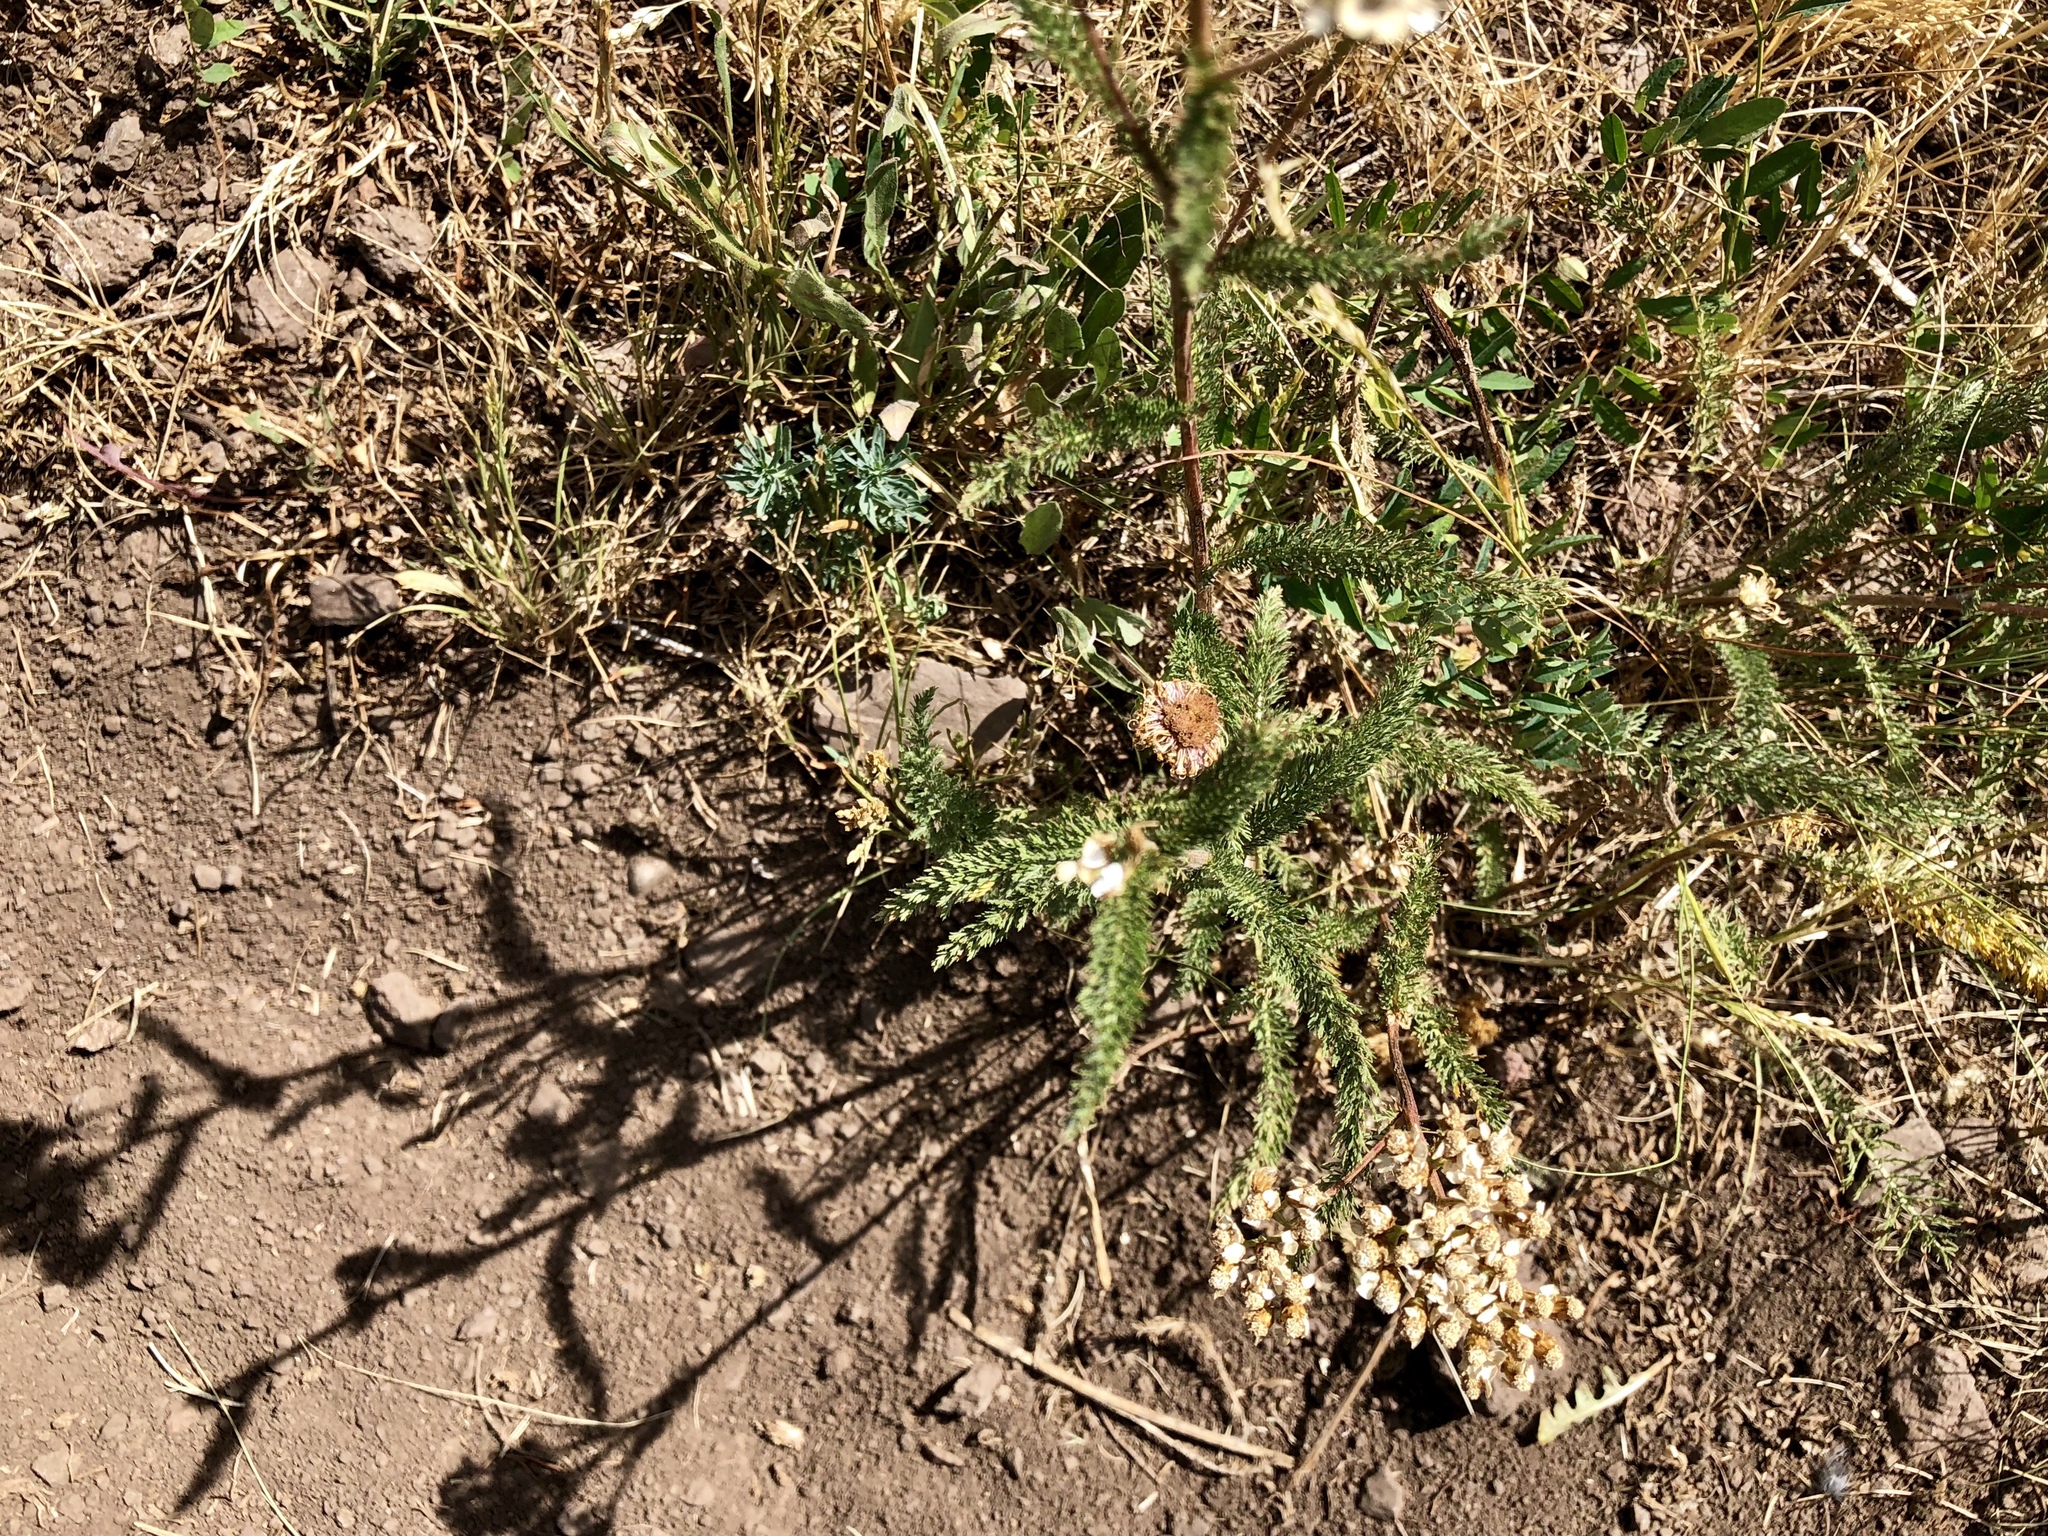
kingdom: Plantae
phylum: Tracheophyta
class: Magnoliopsida
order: Asterales
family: Asteraceae
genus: Achillea
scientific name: Achillea millefolium
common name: Yarrow
